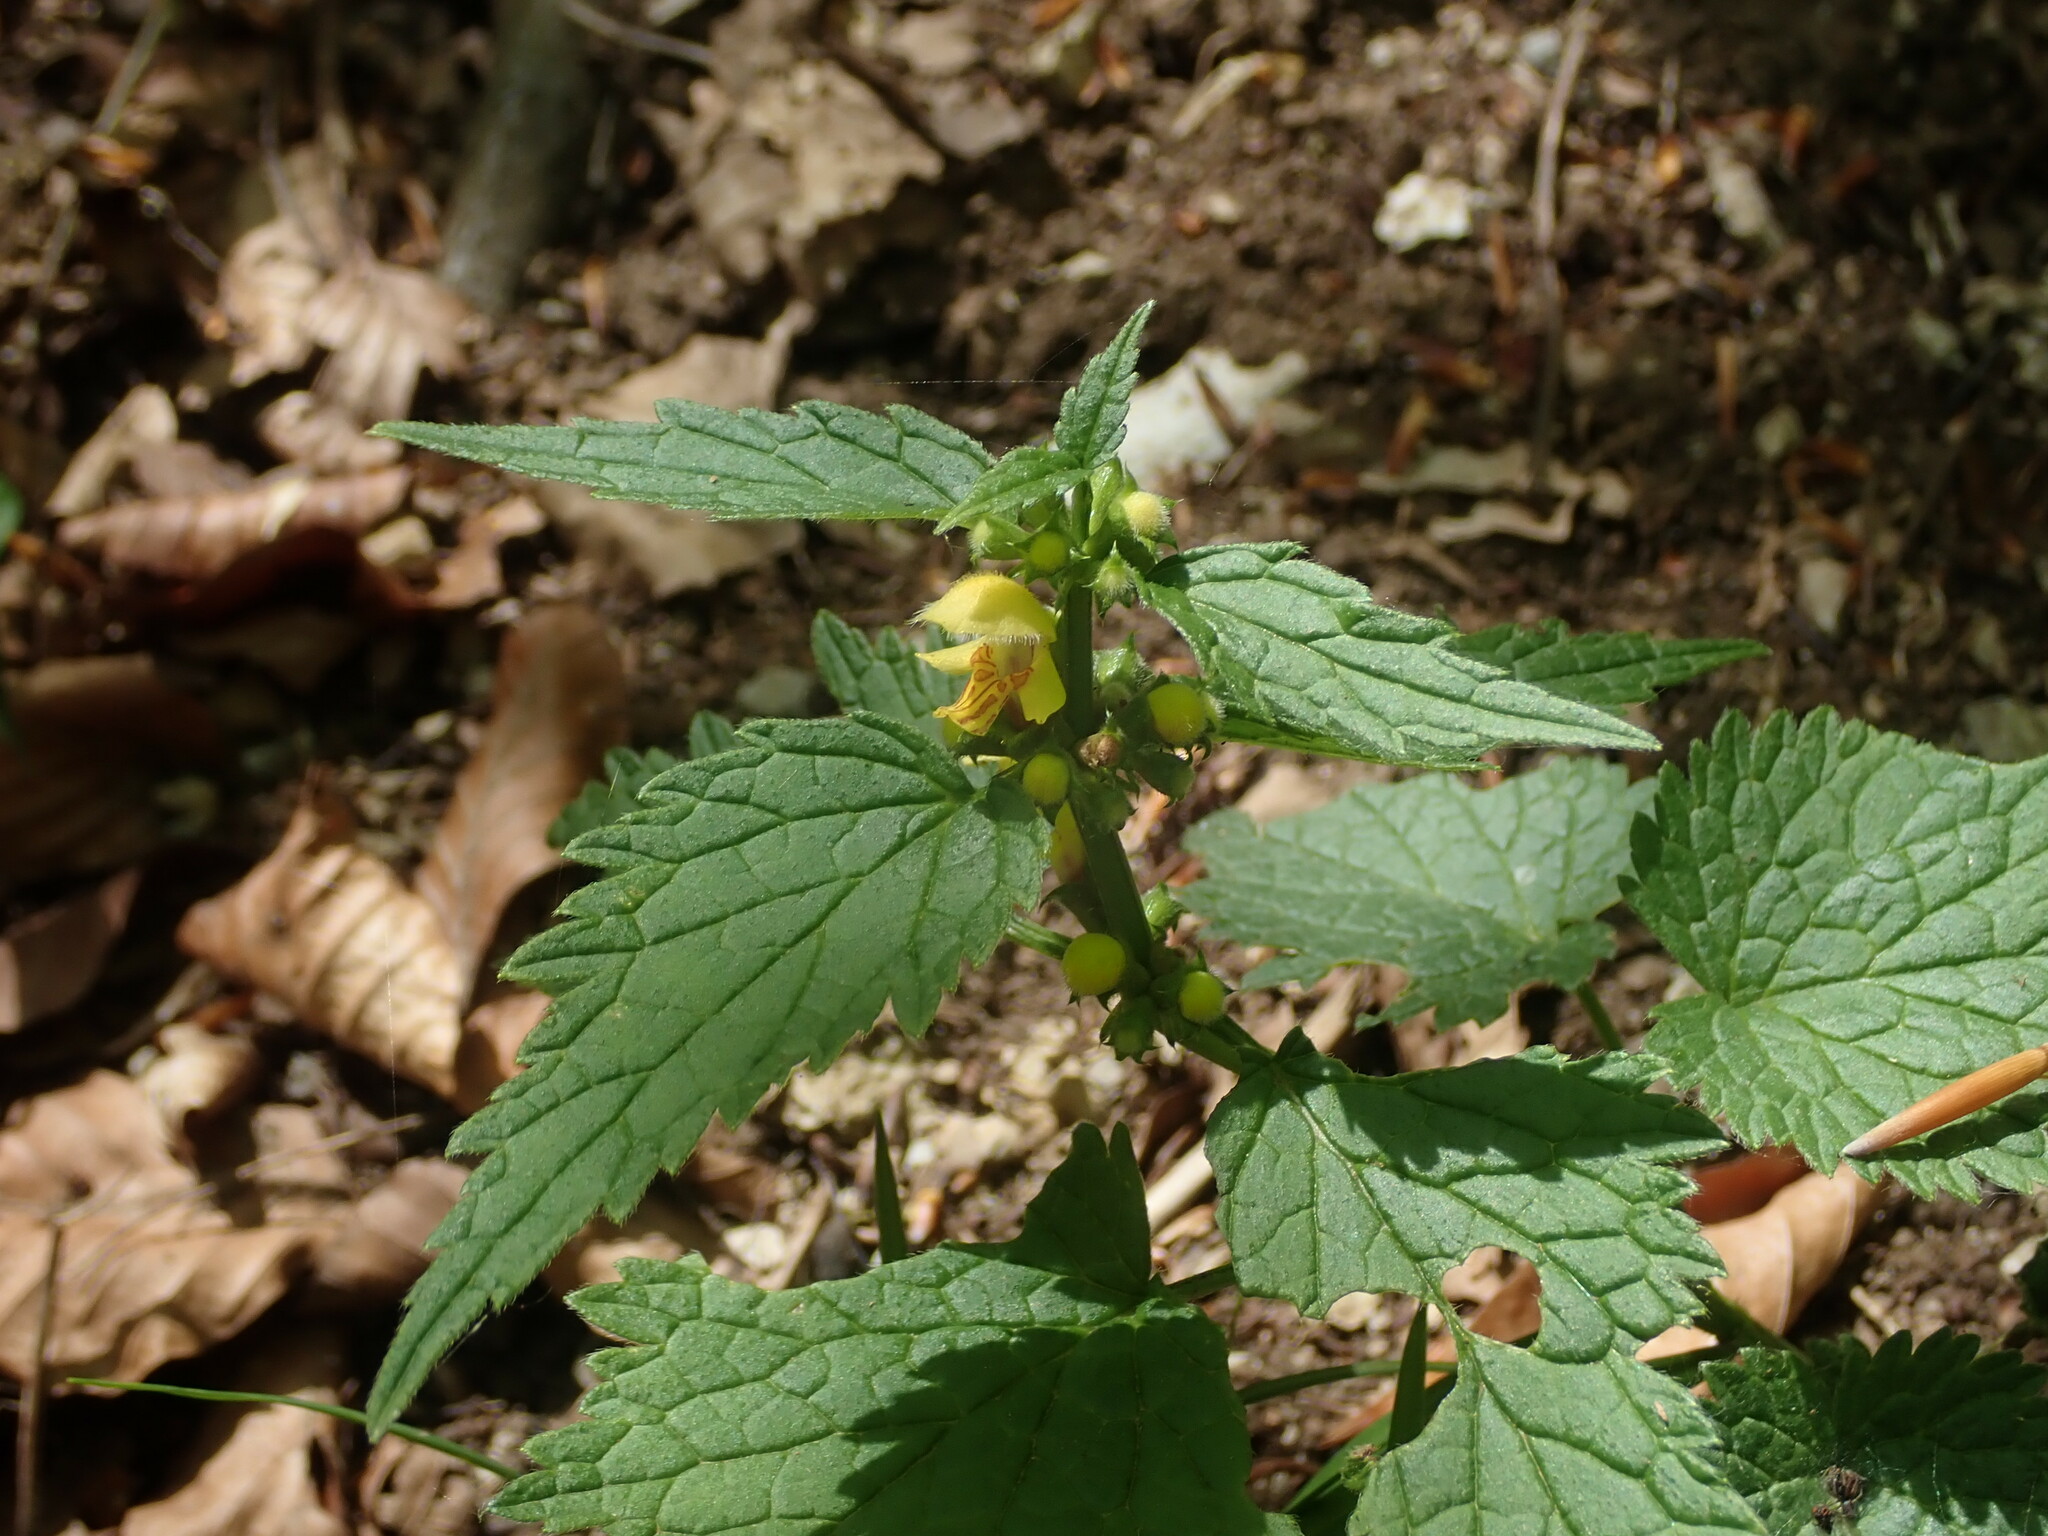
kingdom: Plantae
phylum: Tracheophyta
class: Magnoliopsida
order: Lamiales
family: Lamiaceae
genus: Lamium
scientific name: Lamium galeobdolon
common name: Yellow archangel
